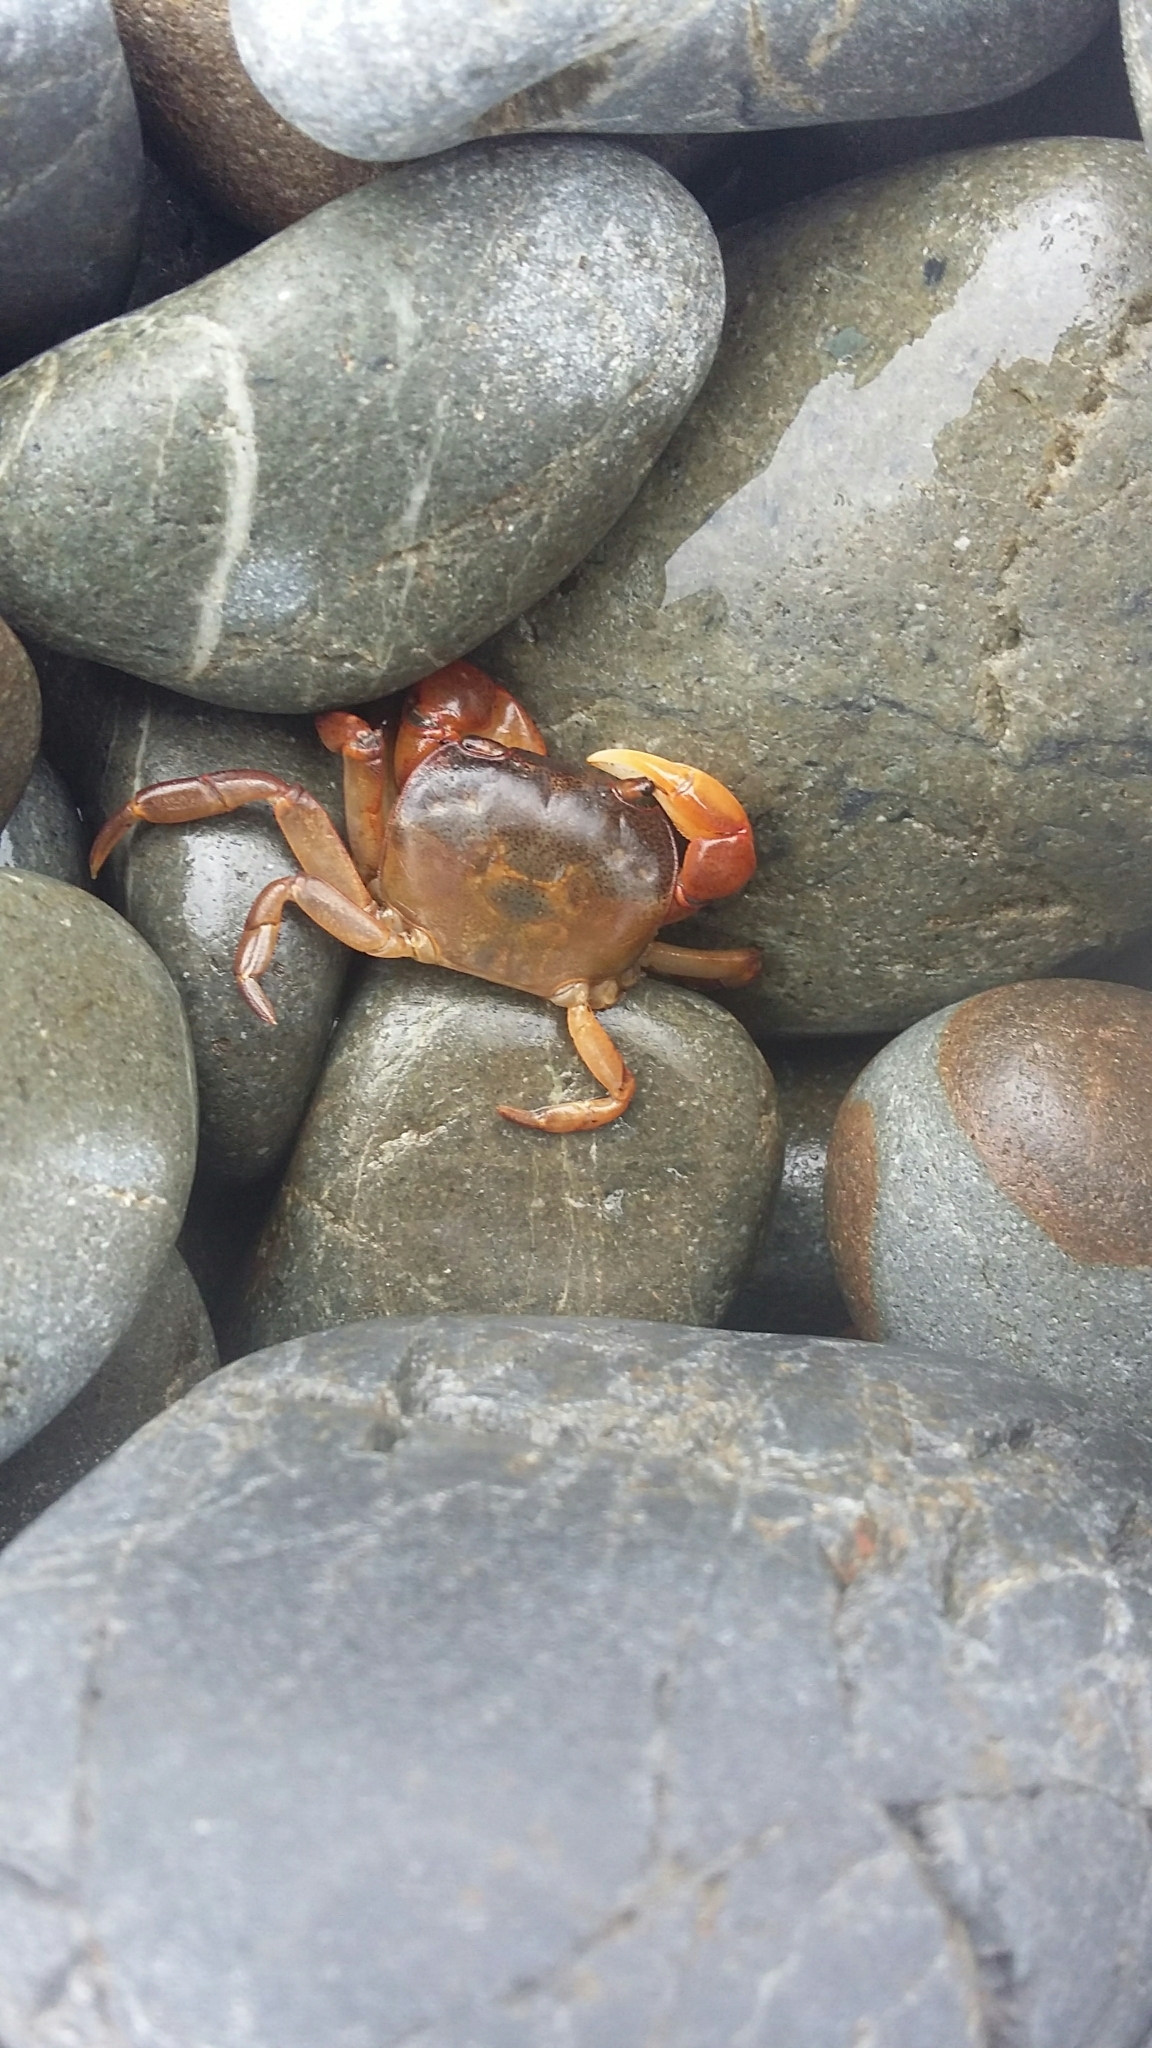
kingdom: Animalia
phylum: Arthropoda
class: Malacostraca
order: Decapoda
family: Varunidae
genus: Cyclograpsus
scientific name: Cyclograpsus lavauxi
